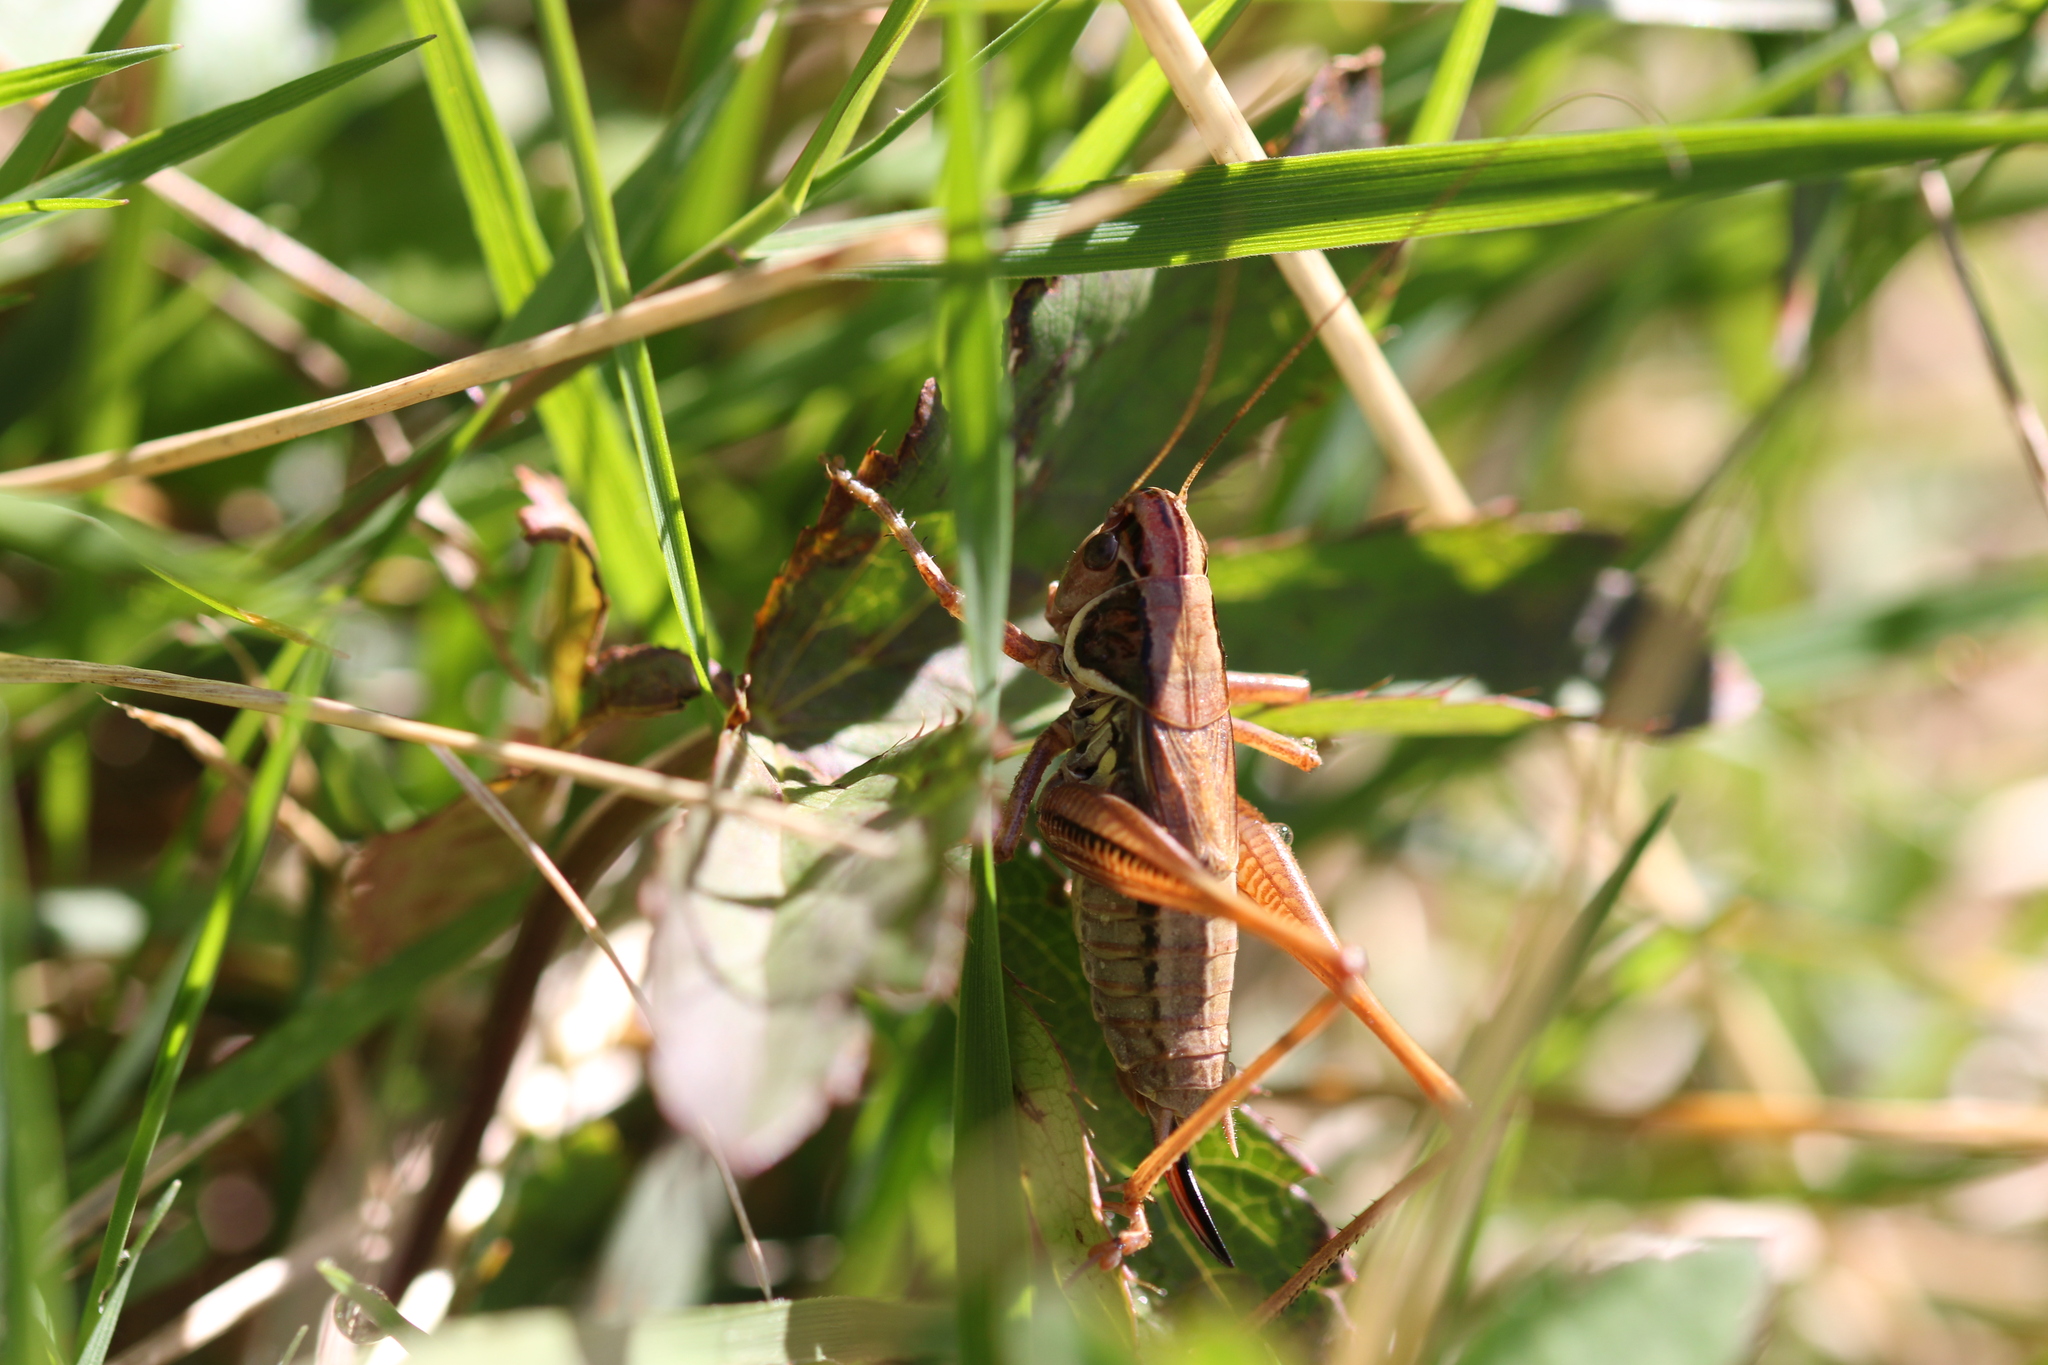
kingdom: Animalia
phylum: Arthropoda
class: Insecta
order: Orthoptera
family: Tettigoniidae
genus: Roeseliana
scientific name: Roeseliana roeselii
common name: Roesel's bush cricket
